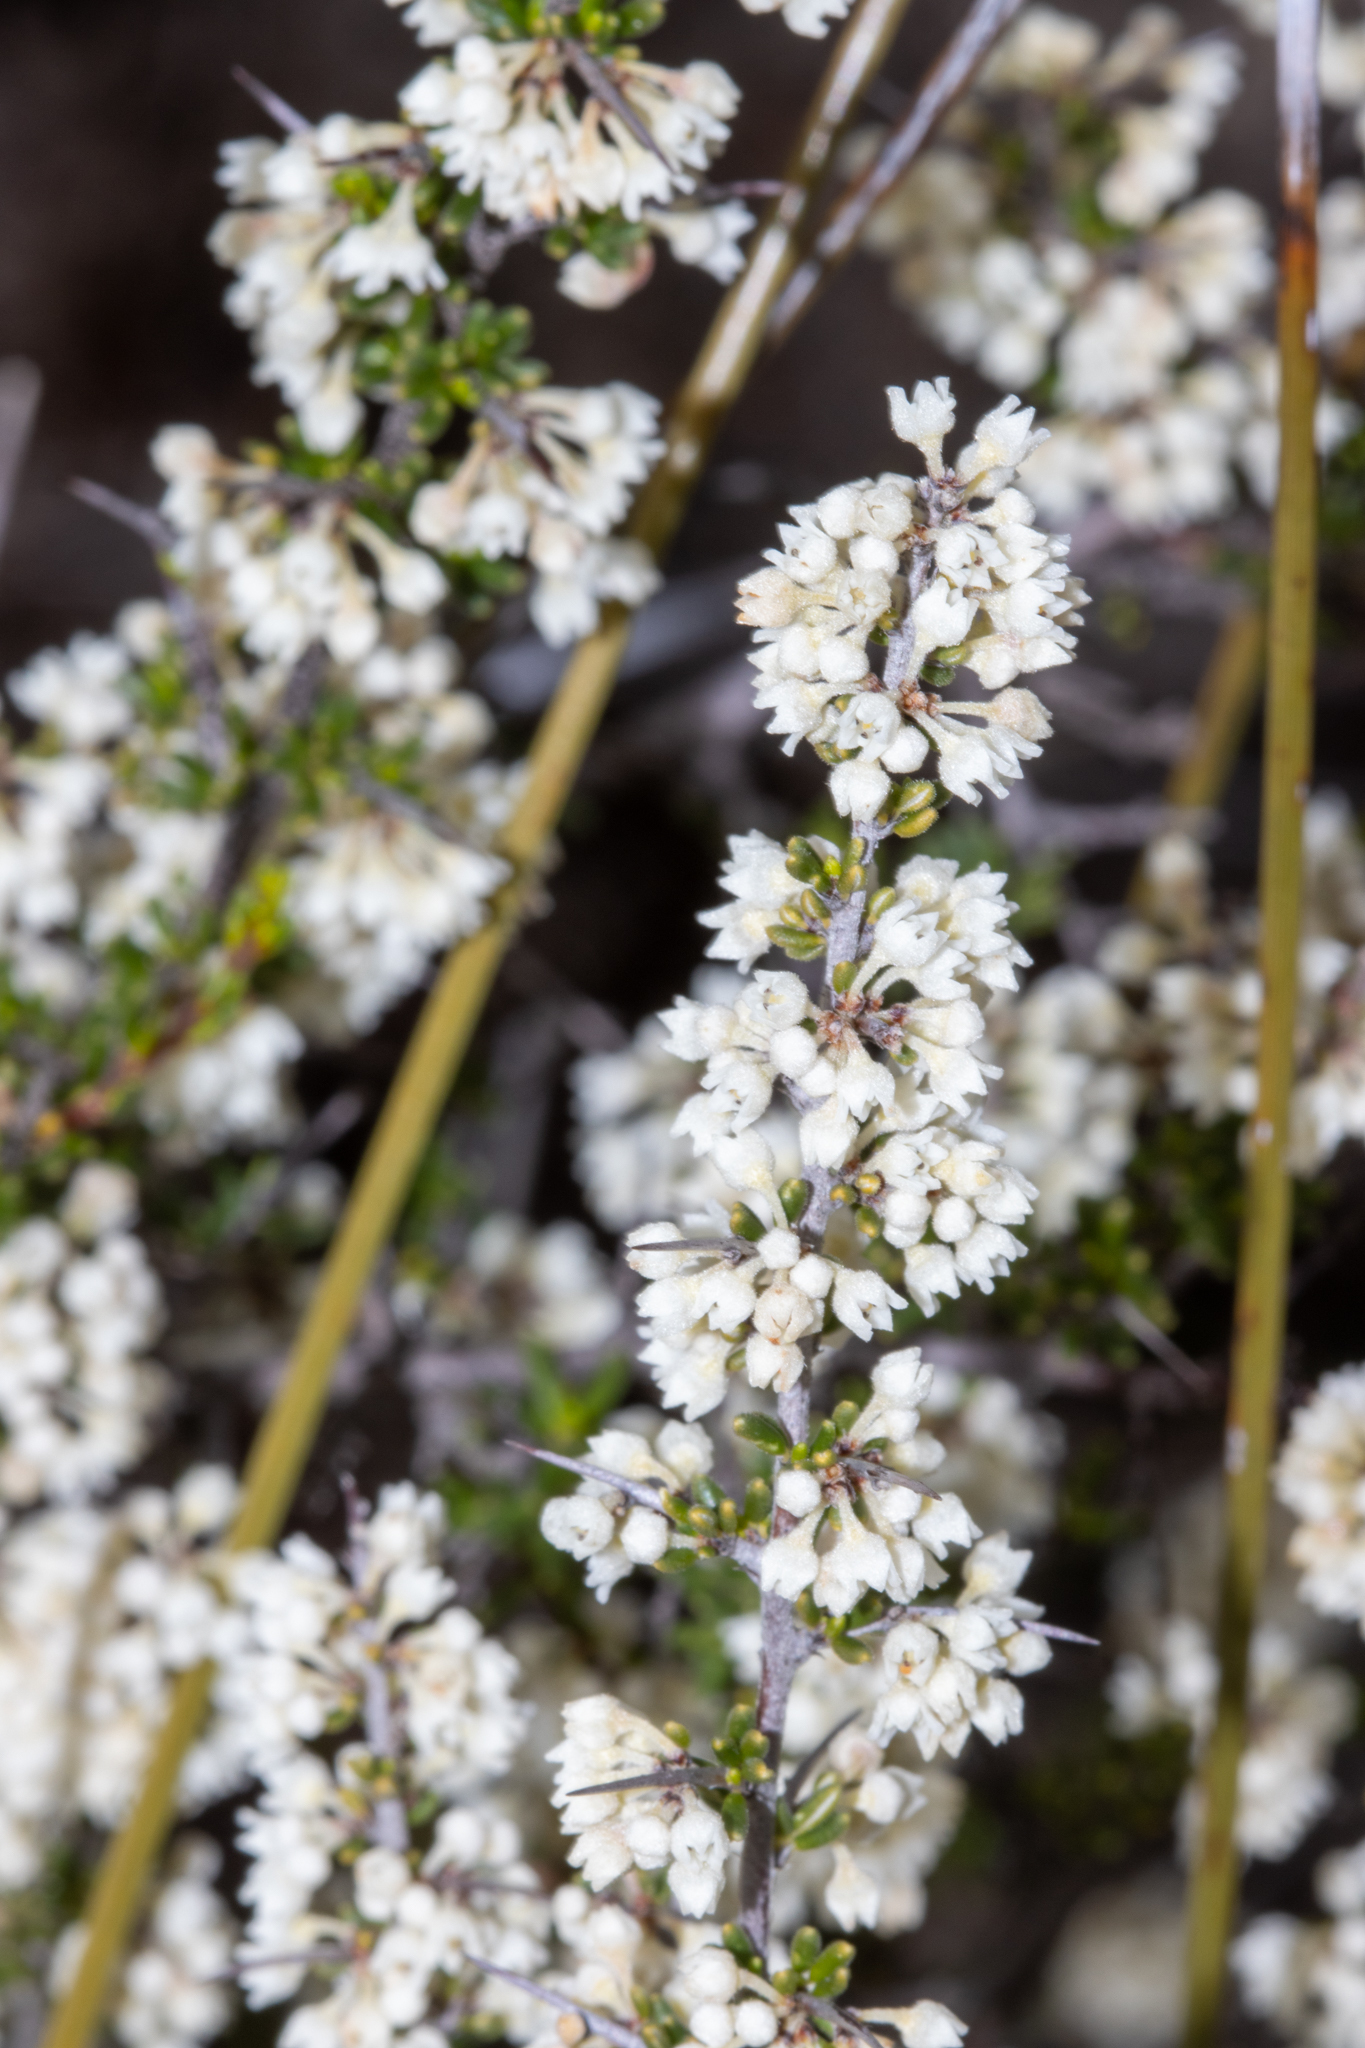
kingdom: Plantae
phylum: Tracheophyta
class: Magnoliopsida
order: Rosales
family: Rhamnaceae
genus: Cryptandra
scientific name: Cryptandra pungens
